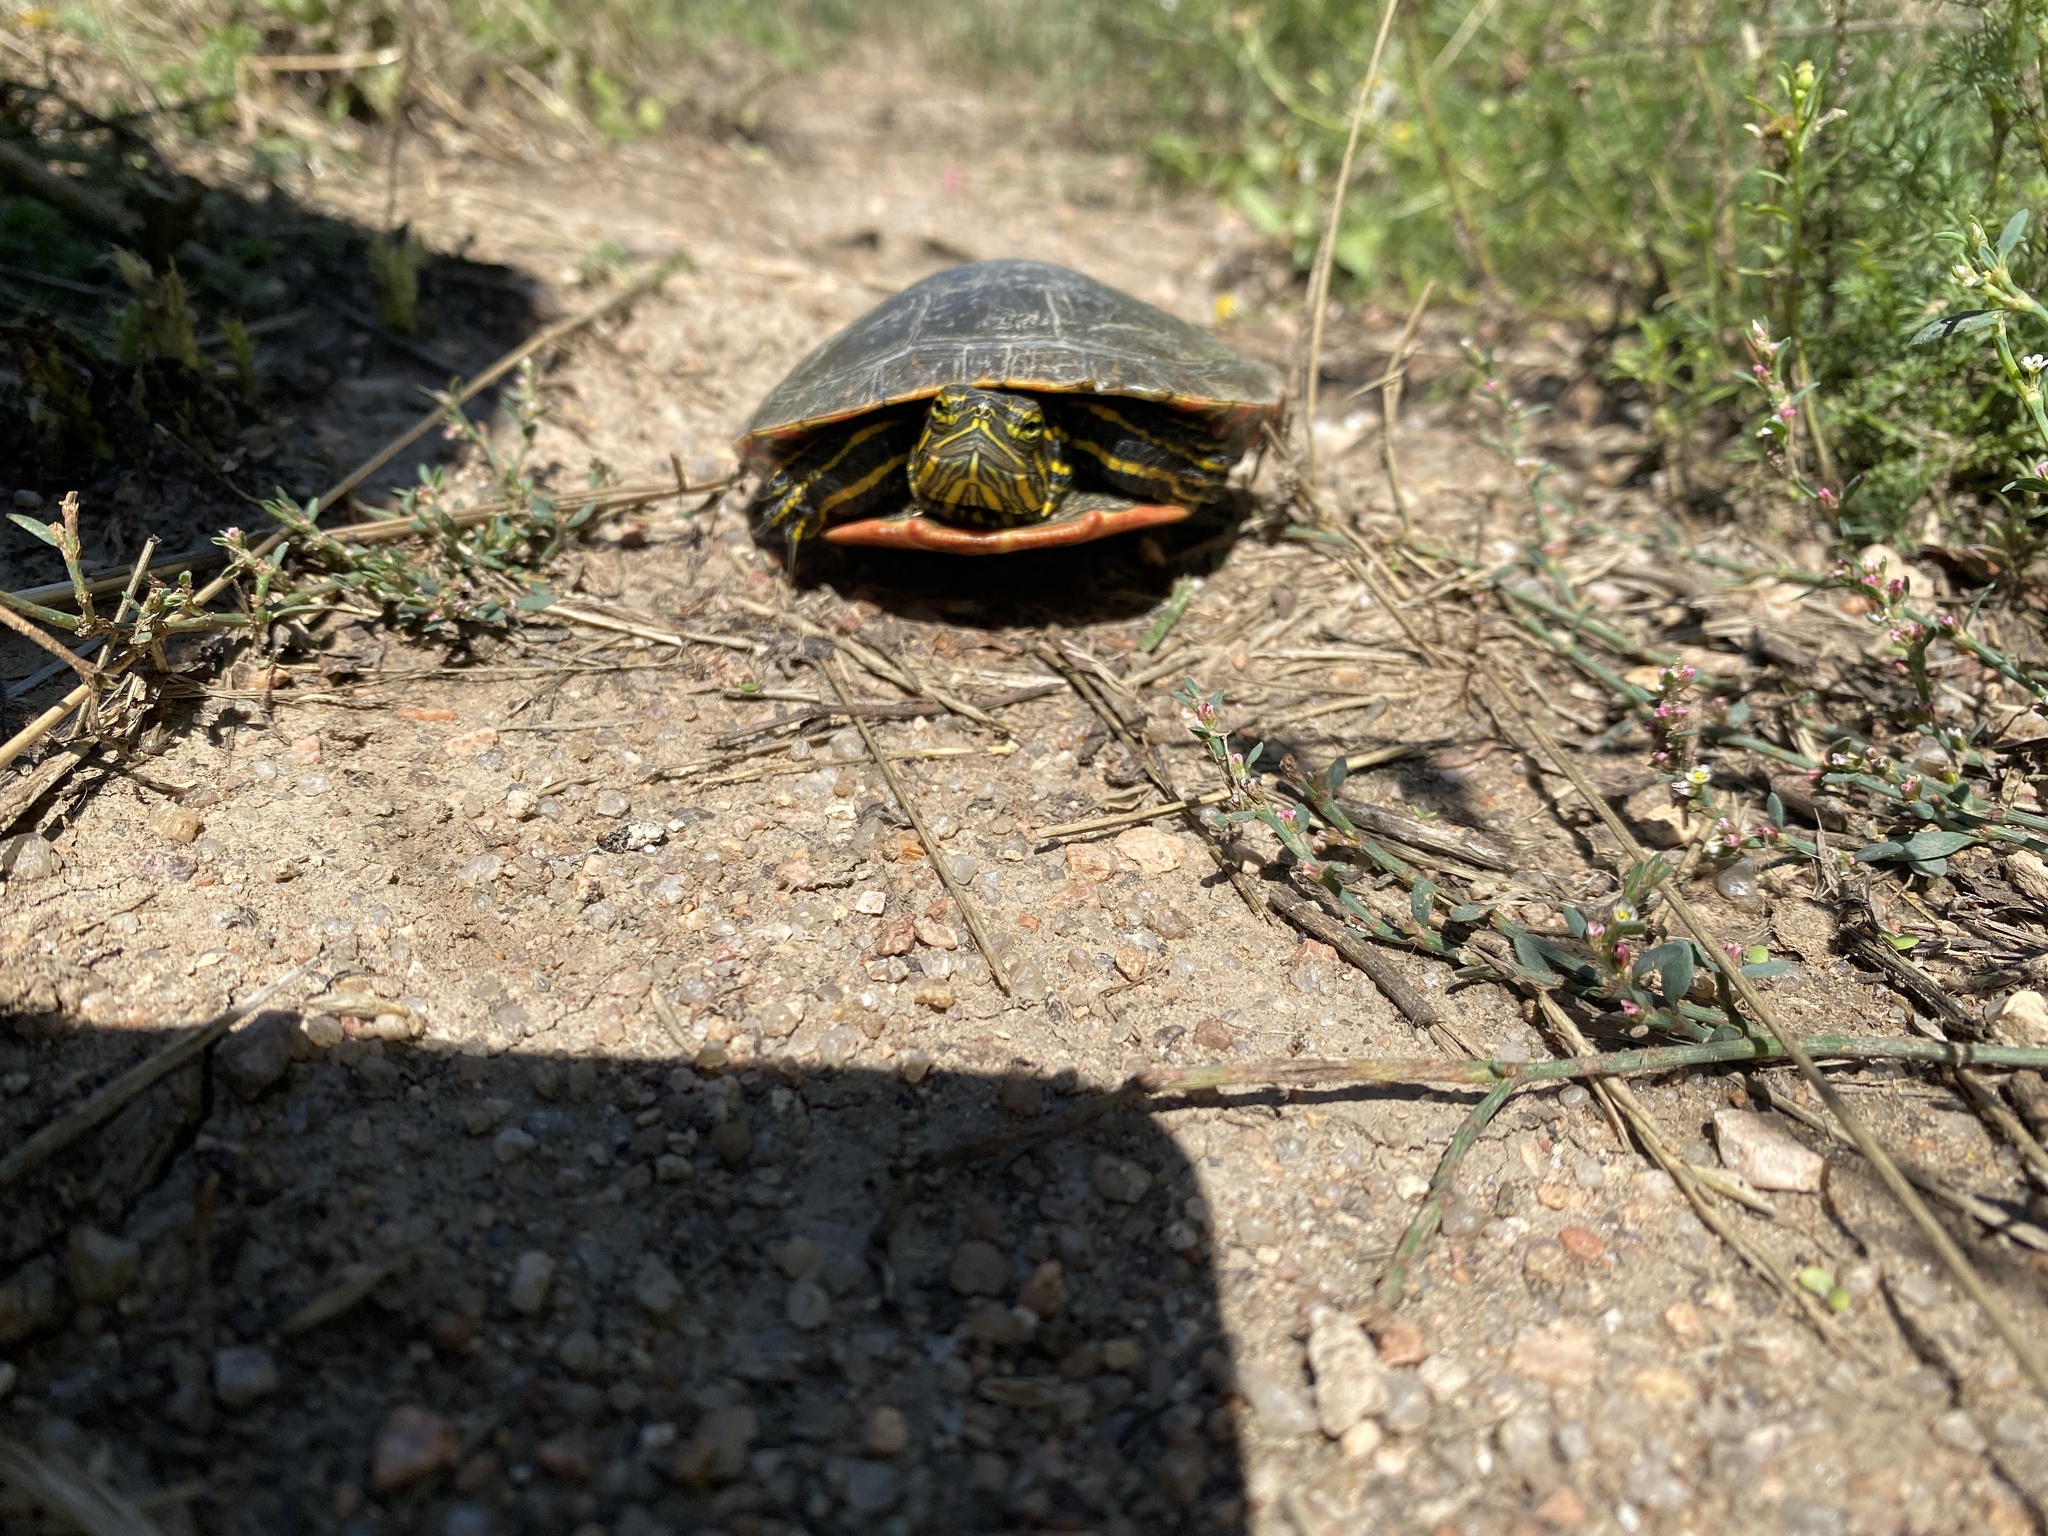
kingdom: Animalia
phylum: Chordata
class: Testudines
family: Emydidae
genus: Chrysemys
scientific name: Chrysemys picta
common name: Painted turtle
